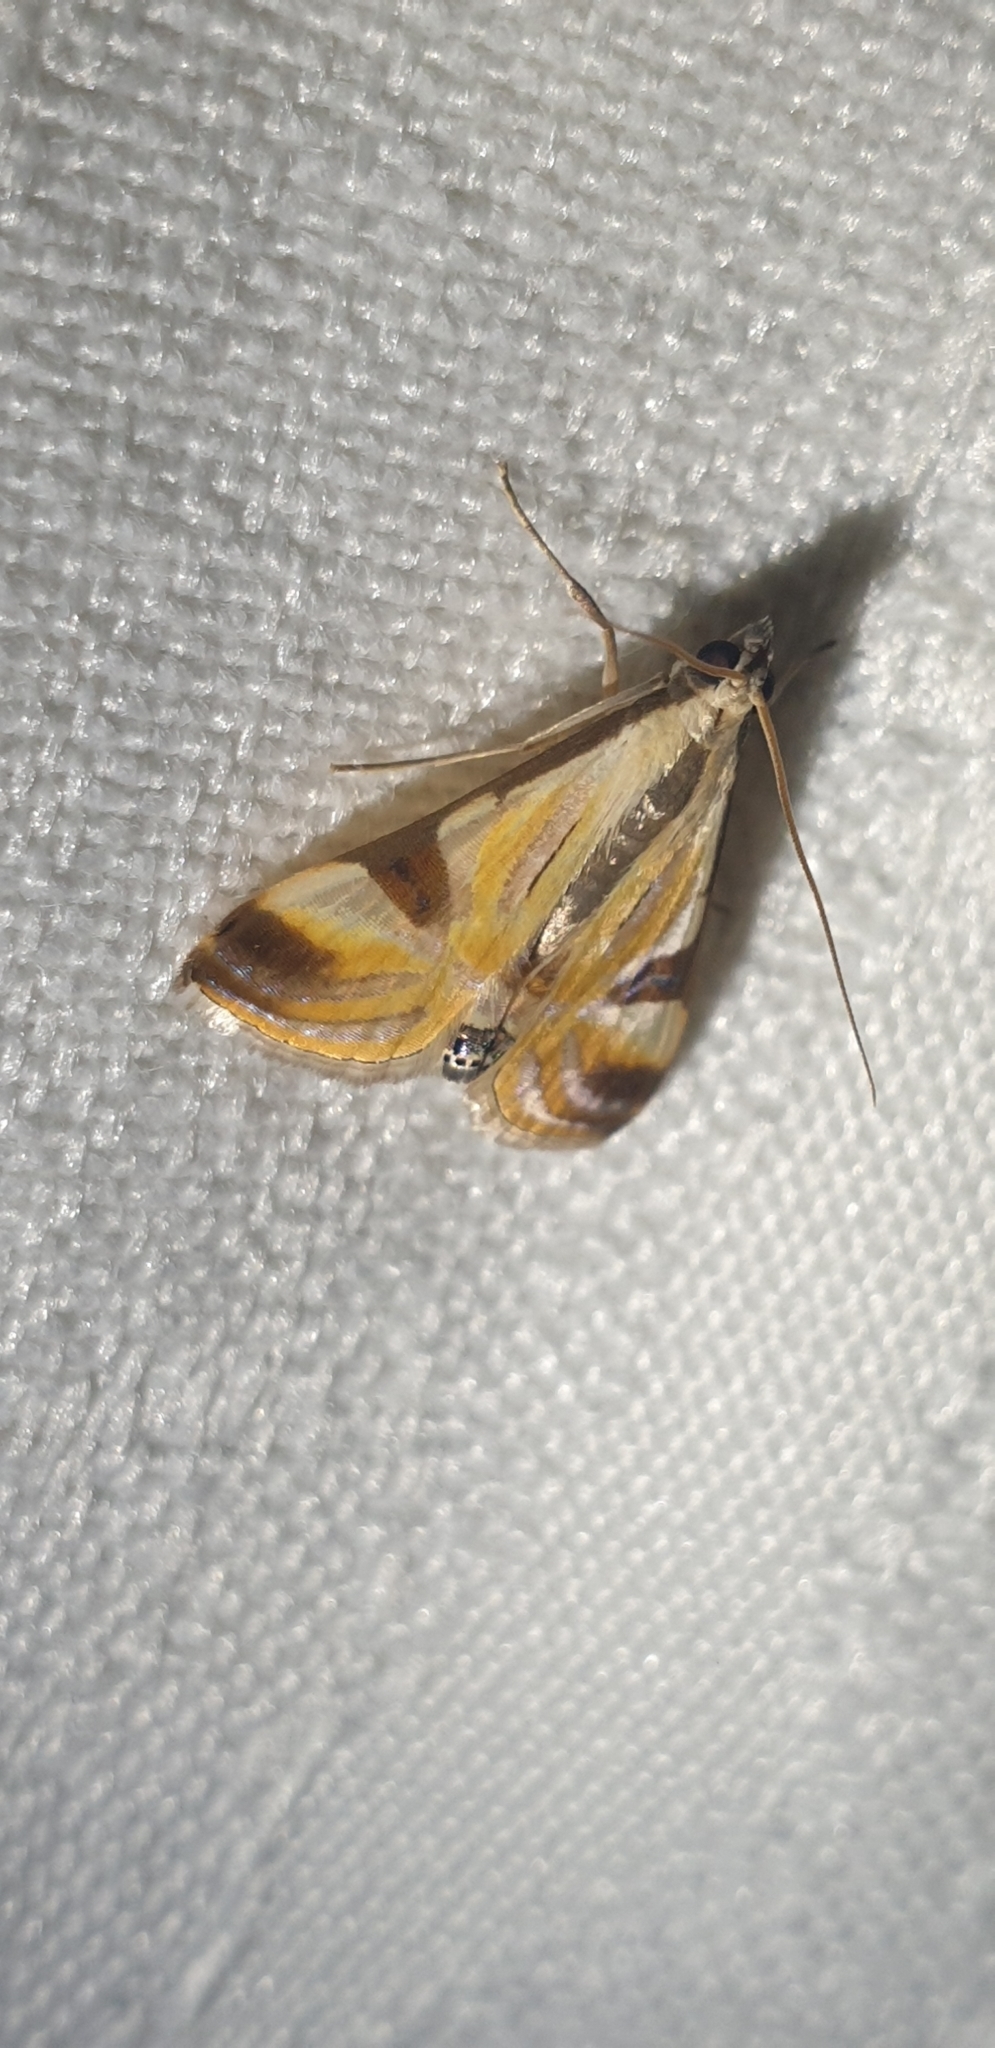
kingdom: Animalia
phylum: Arthropoda
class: Insecta
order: Lepidoptera
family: Crambidae
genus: Talanga
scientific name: Talanga tolumnialis
